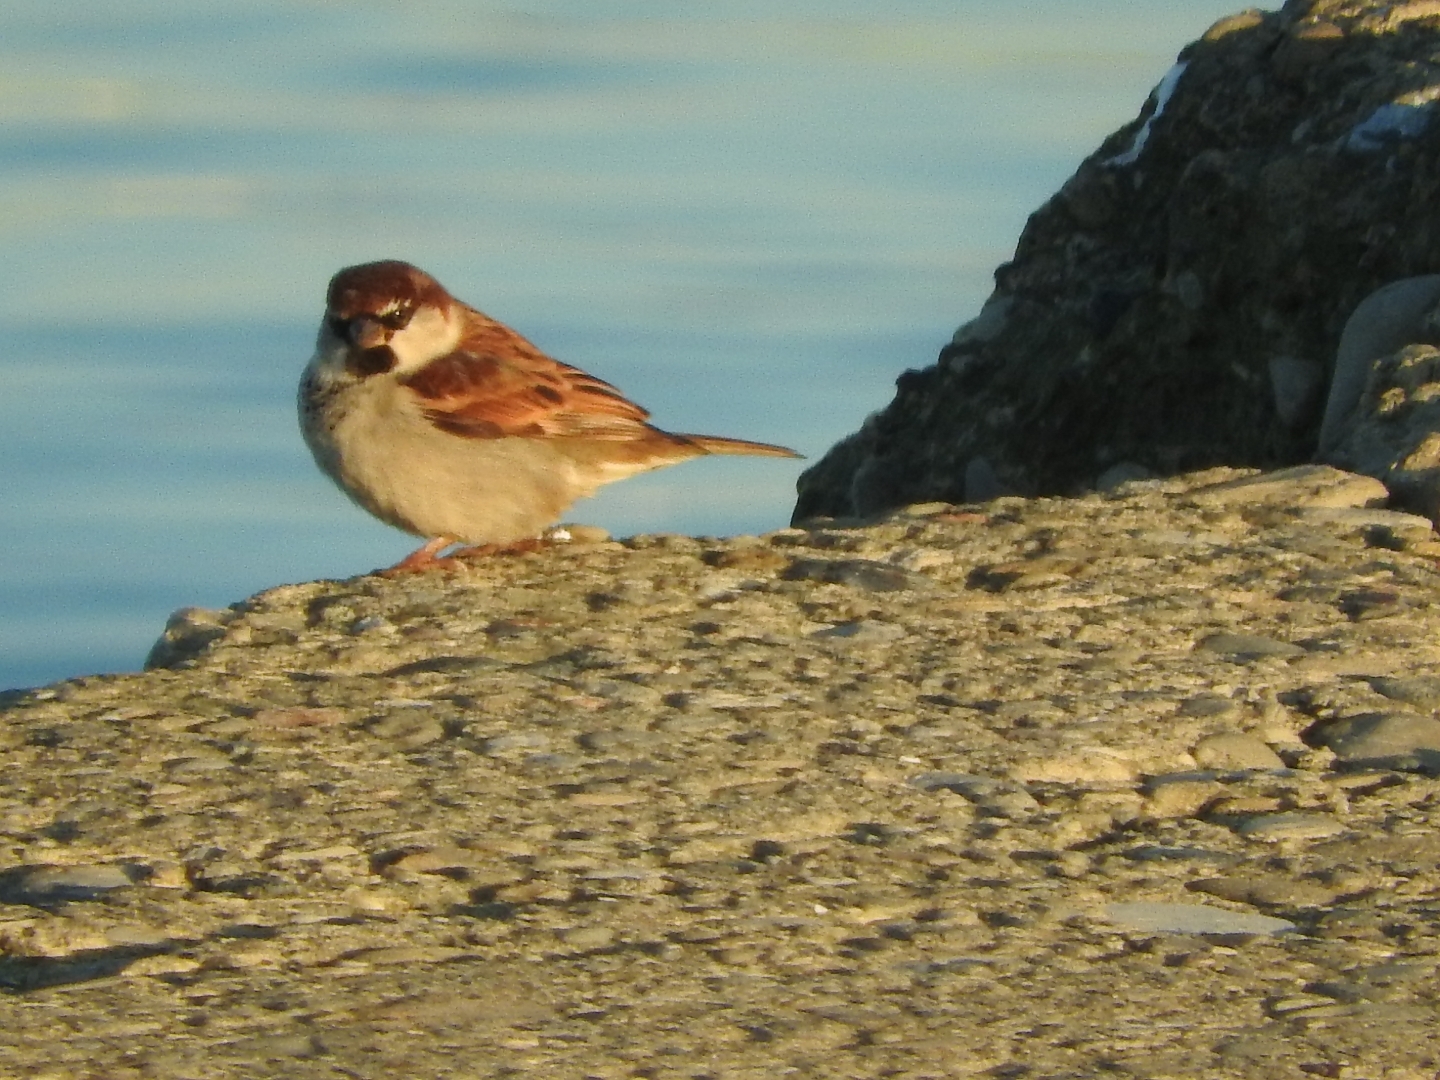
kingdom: Animalia
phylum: Chordata
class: Aves
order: Passeriformes
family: Passeridae
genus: Passer
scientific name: Passer italiae
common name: Italian sparrow
